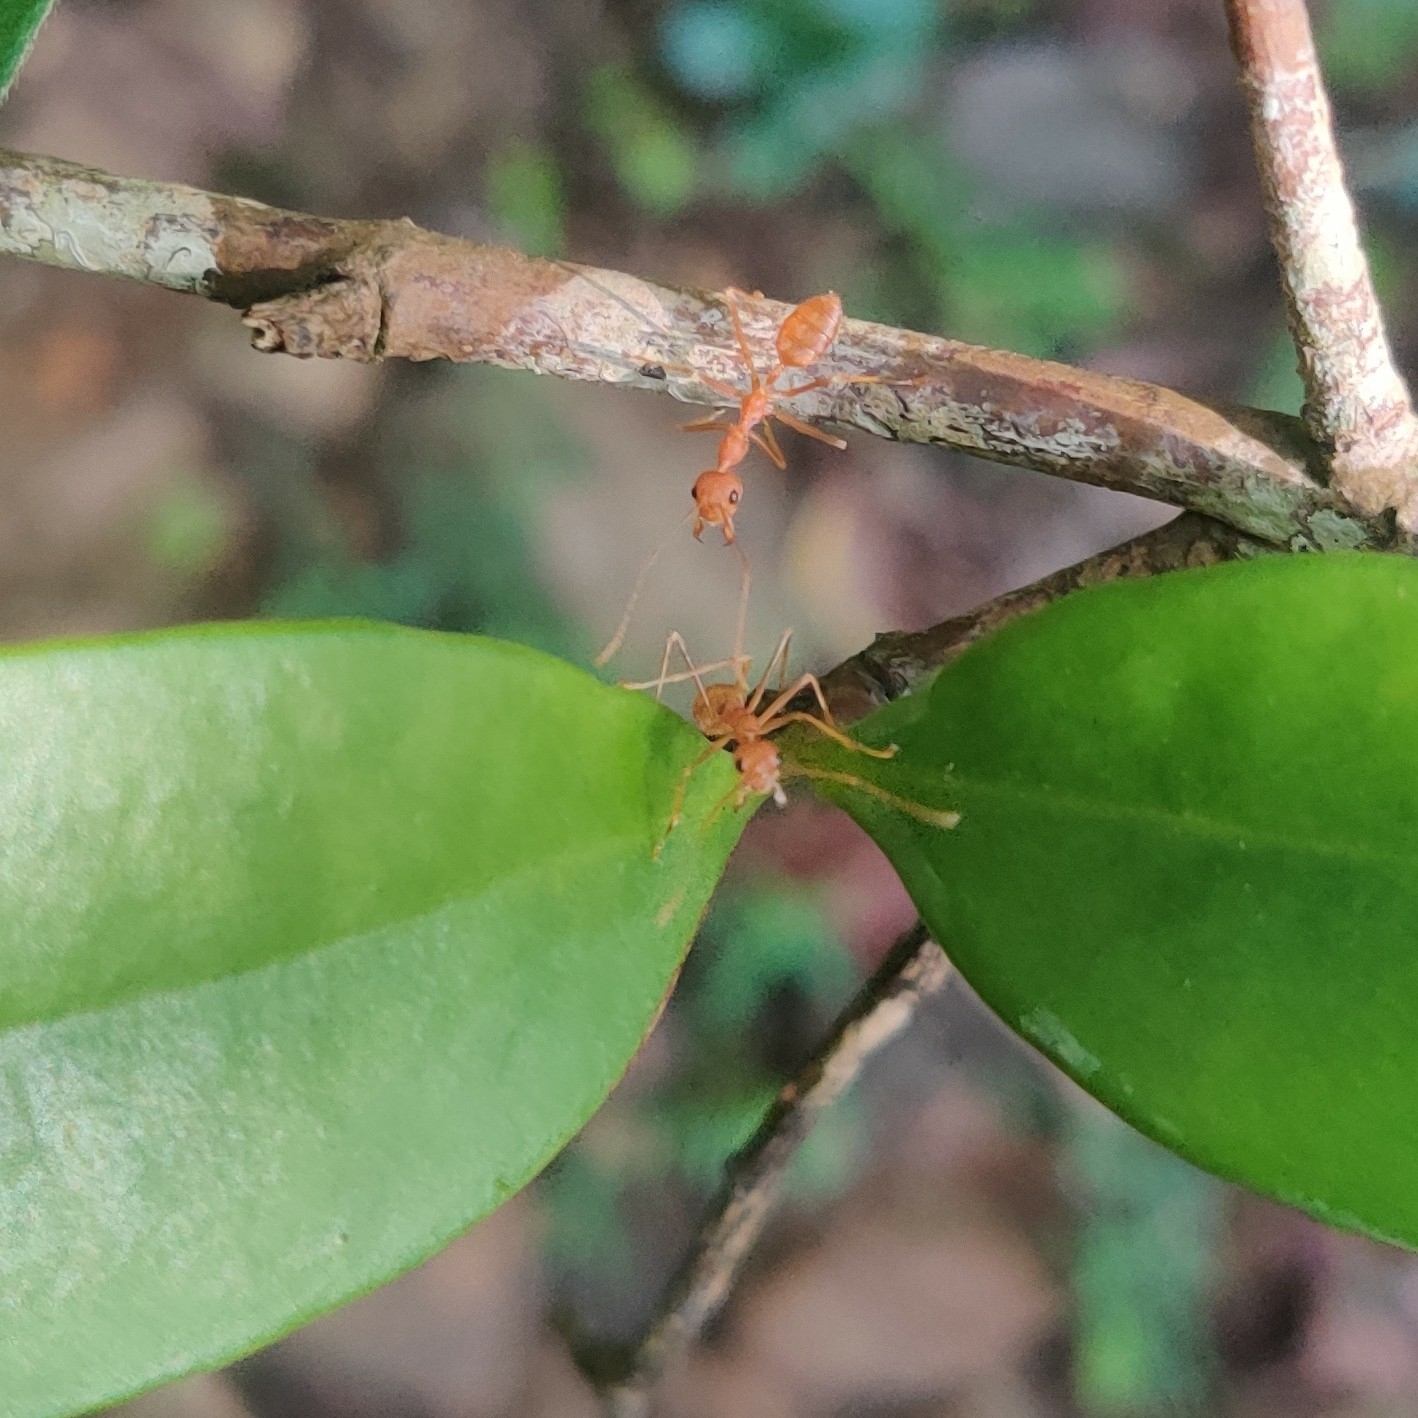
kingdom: Animalia
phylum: Arthropoda
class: Insecta
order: Hymenoptera
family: Formicidae
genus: Oecophylla
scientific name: Oecophylla smaragdina
